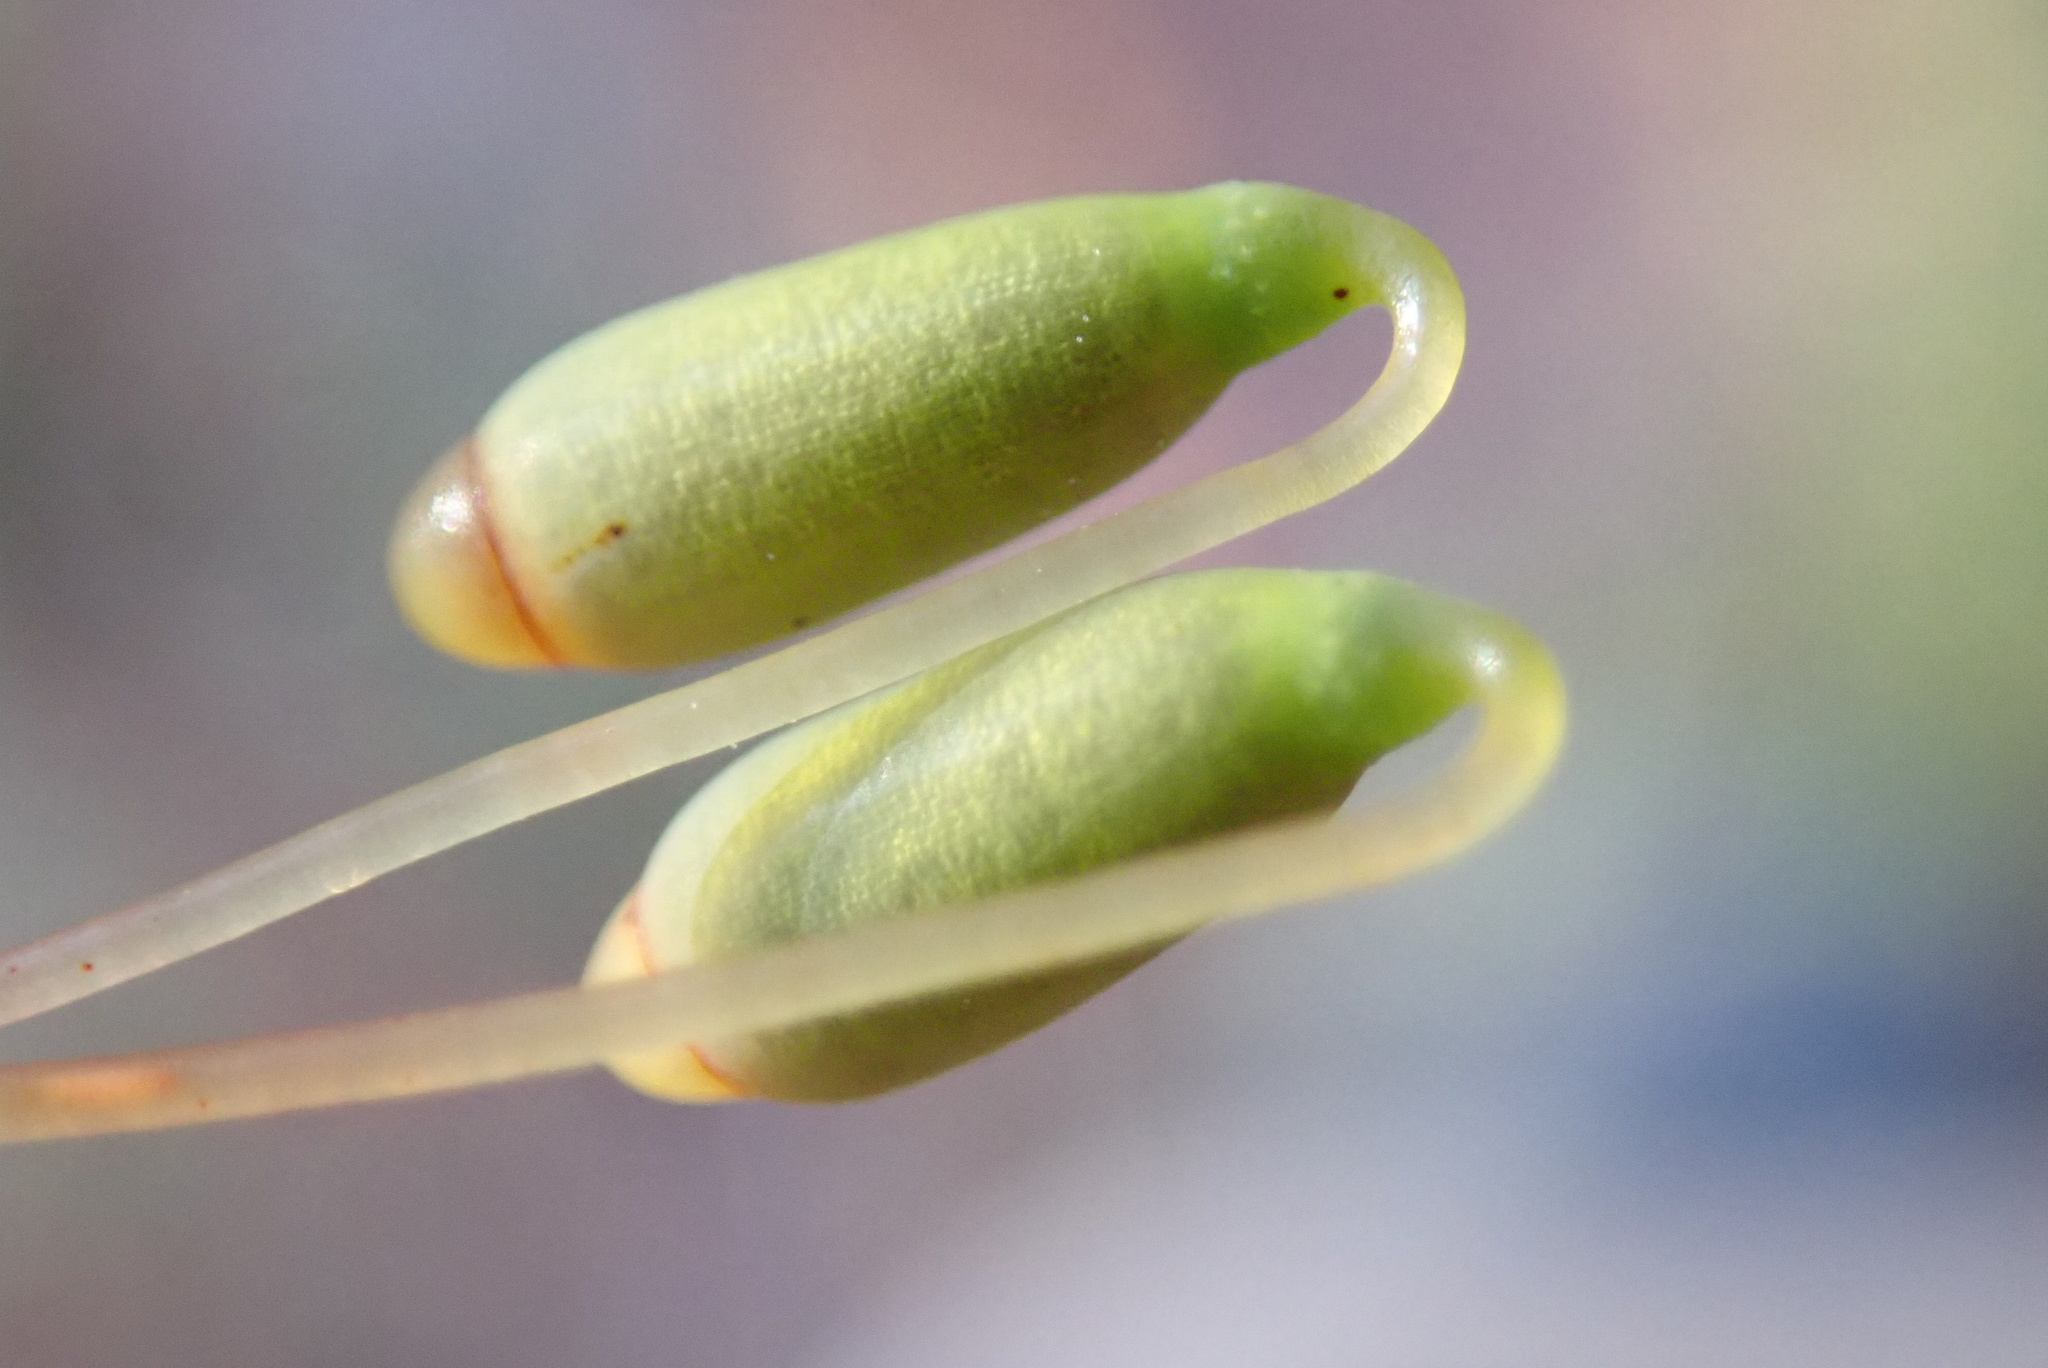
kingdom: Plantae
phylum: Bryophyta
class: Bryopsida
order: Bryales
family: Mniaceae
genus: Leucolepis
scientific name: Leucolepis acanthoneura
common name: Leucolepis umbrella moss
